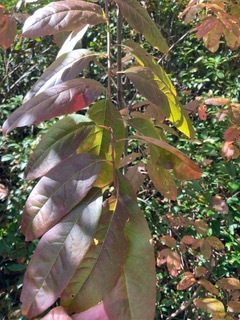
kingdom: Plantae
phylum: Tracheophyta
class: Magnoliopsida
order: Ericales
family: Ericaceae
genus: Oxydendrum
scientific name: Oxydendrum arboreum
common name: Sourwood
